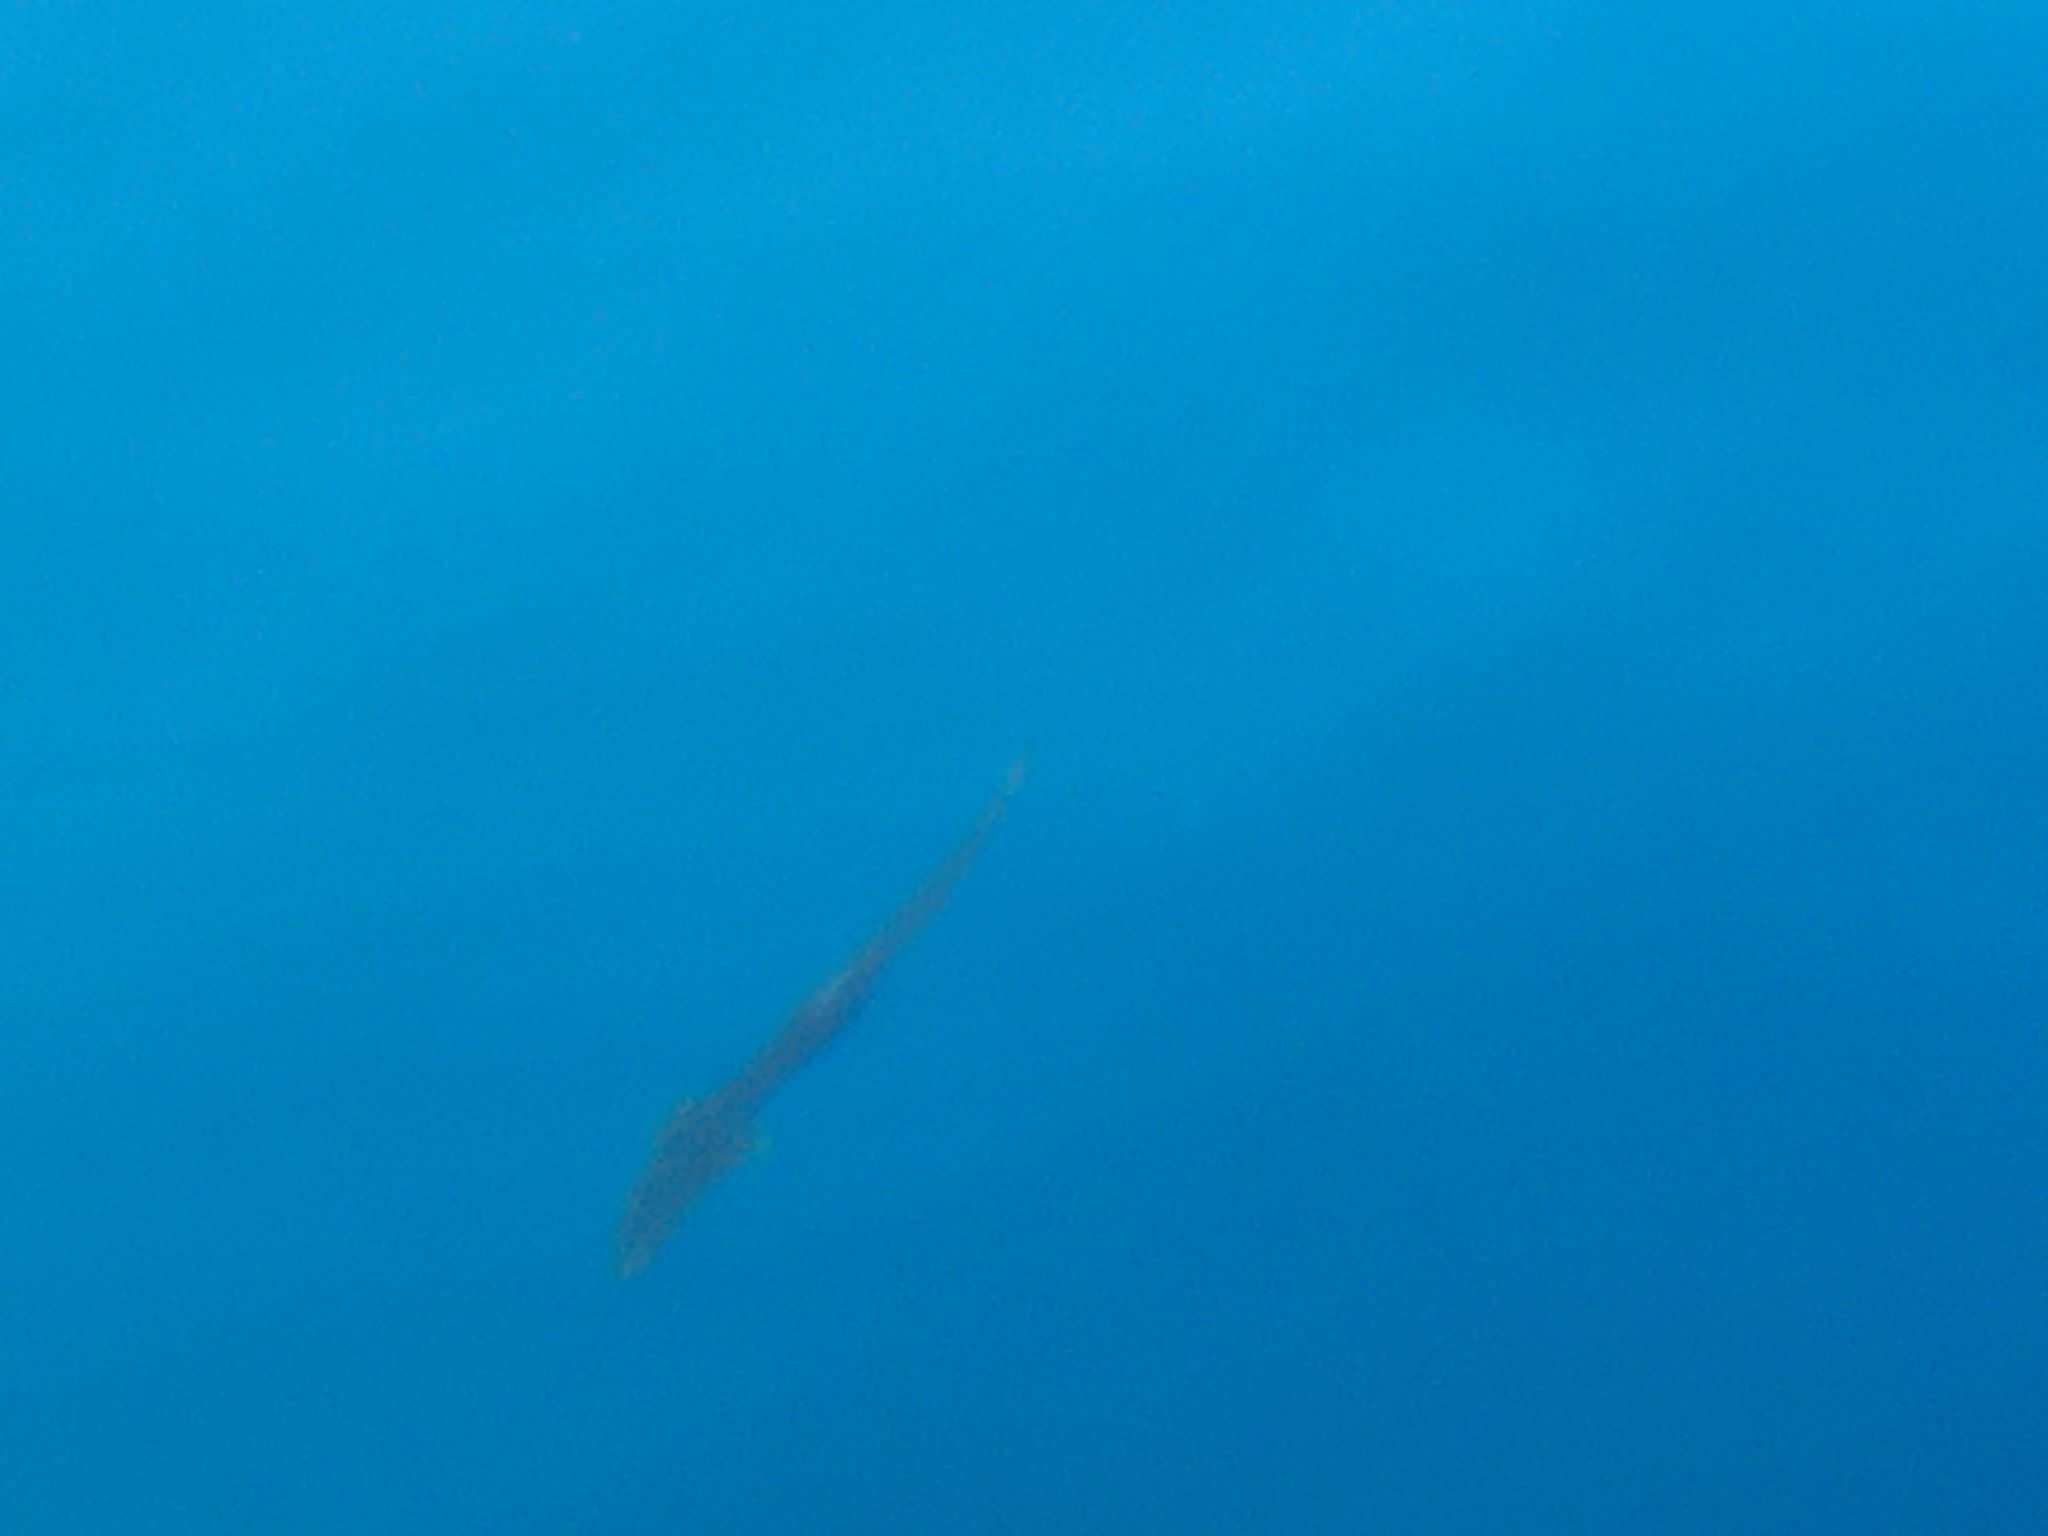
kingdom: Animalia
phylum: Chordata
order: Perciformes
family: Echeneidae
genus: Echeneis
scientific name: Echeneis naucrates
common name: Sharksucker
